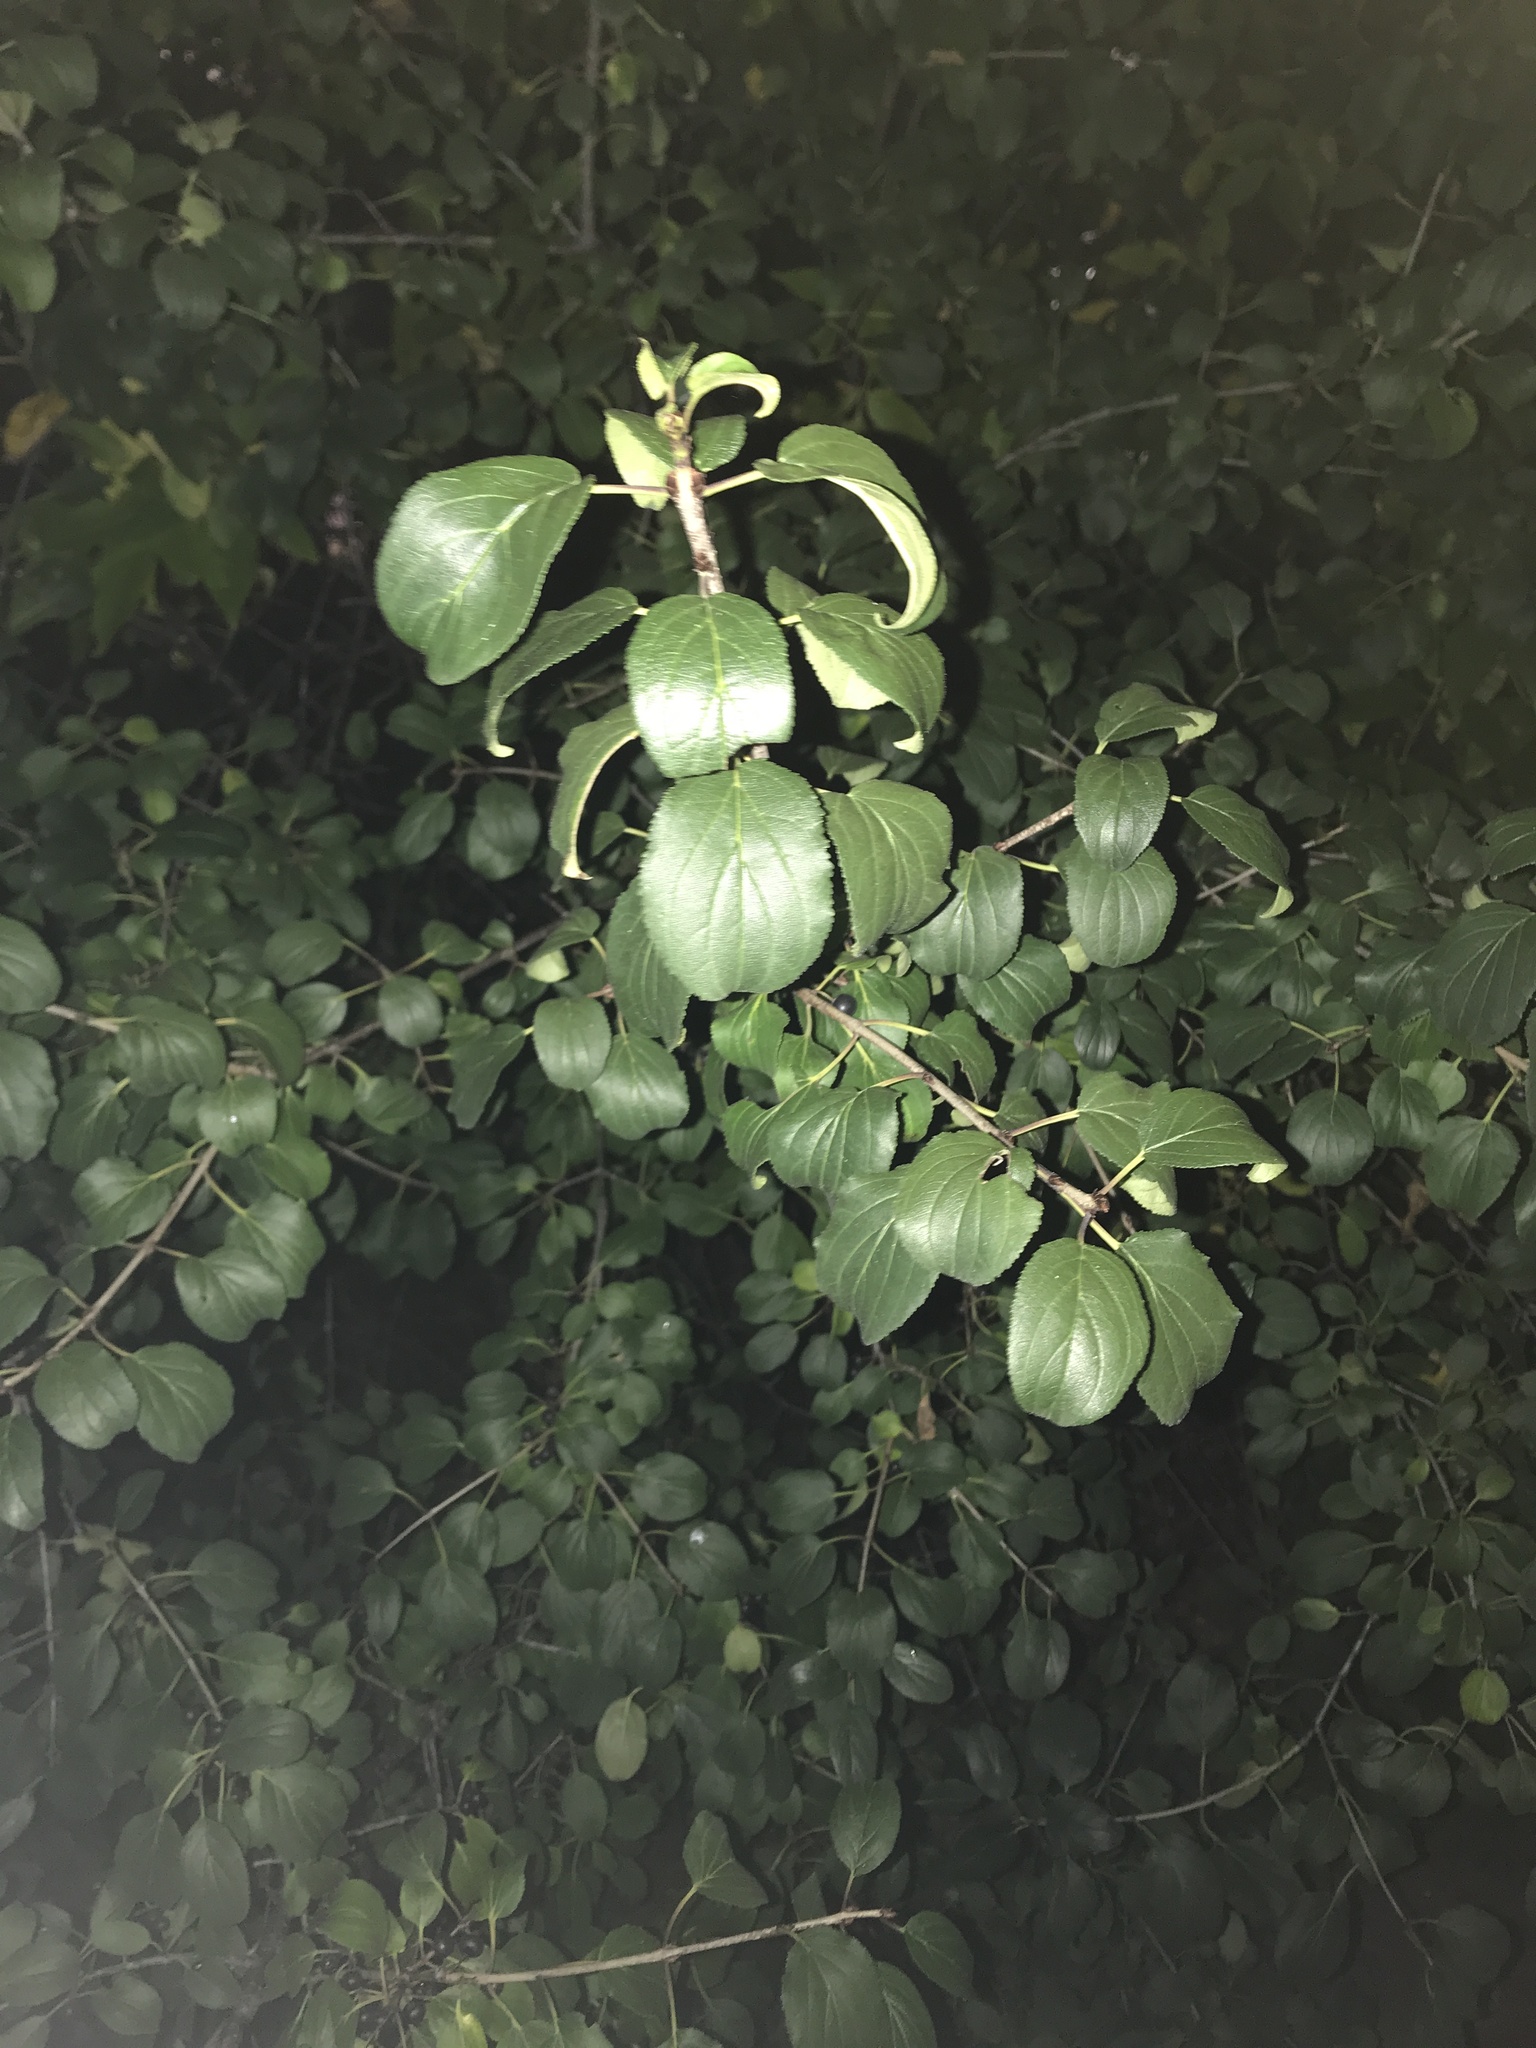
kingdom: Plantae
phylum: Tracheophyta
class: Magnoliopsida
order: Rosales
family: Rhamnaceae
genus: Rhamnus
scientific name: Rhamnus cathartica
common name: Common buckthorn
